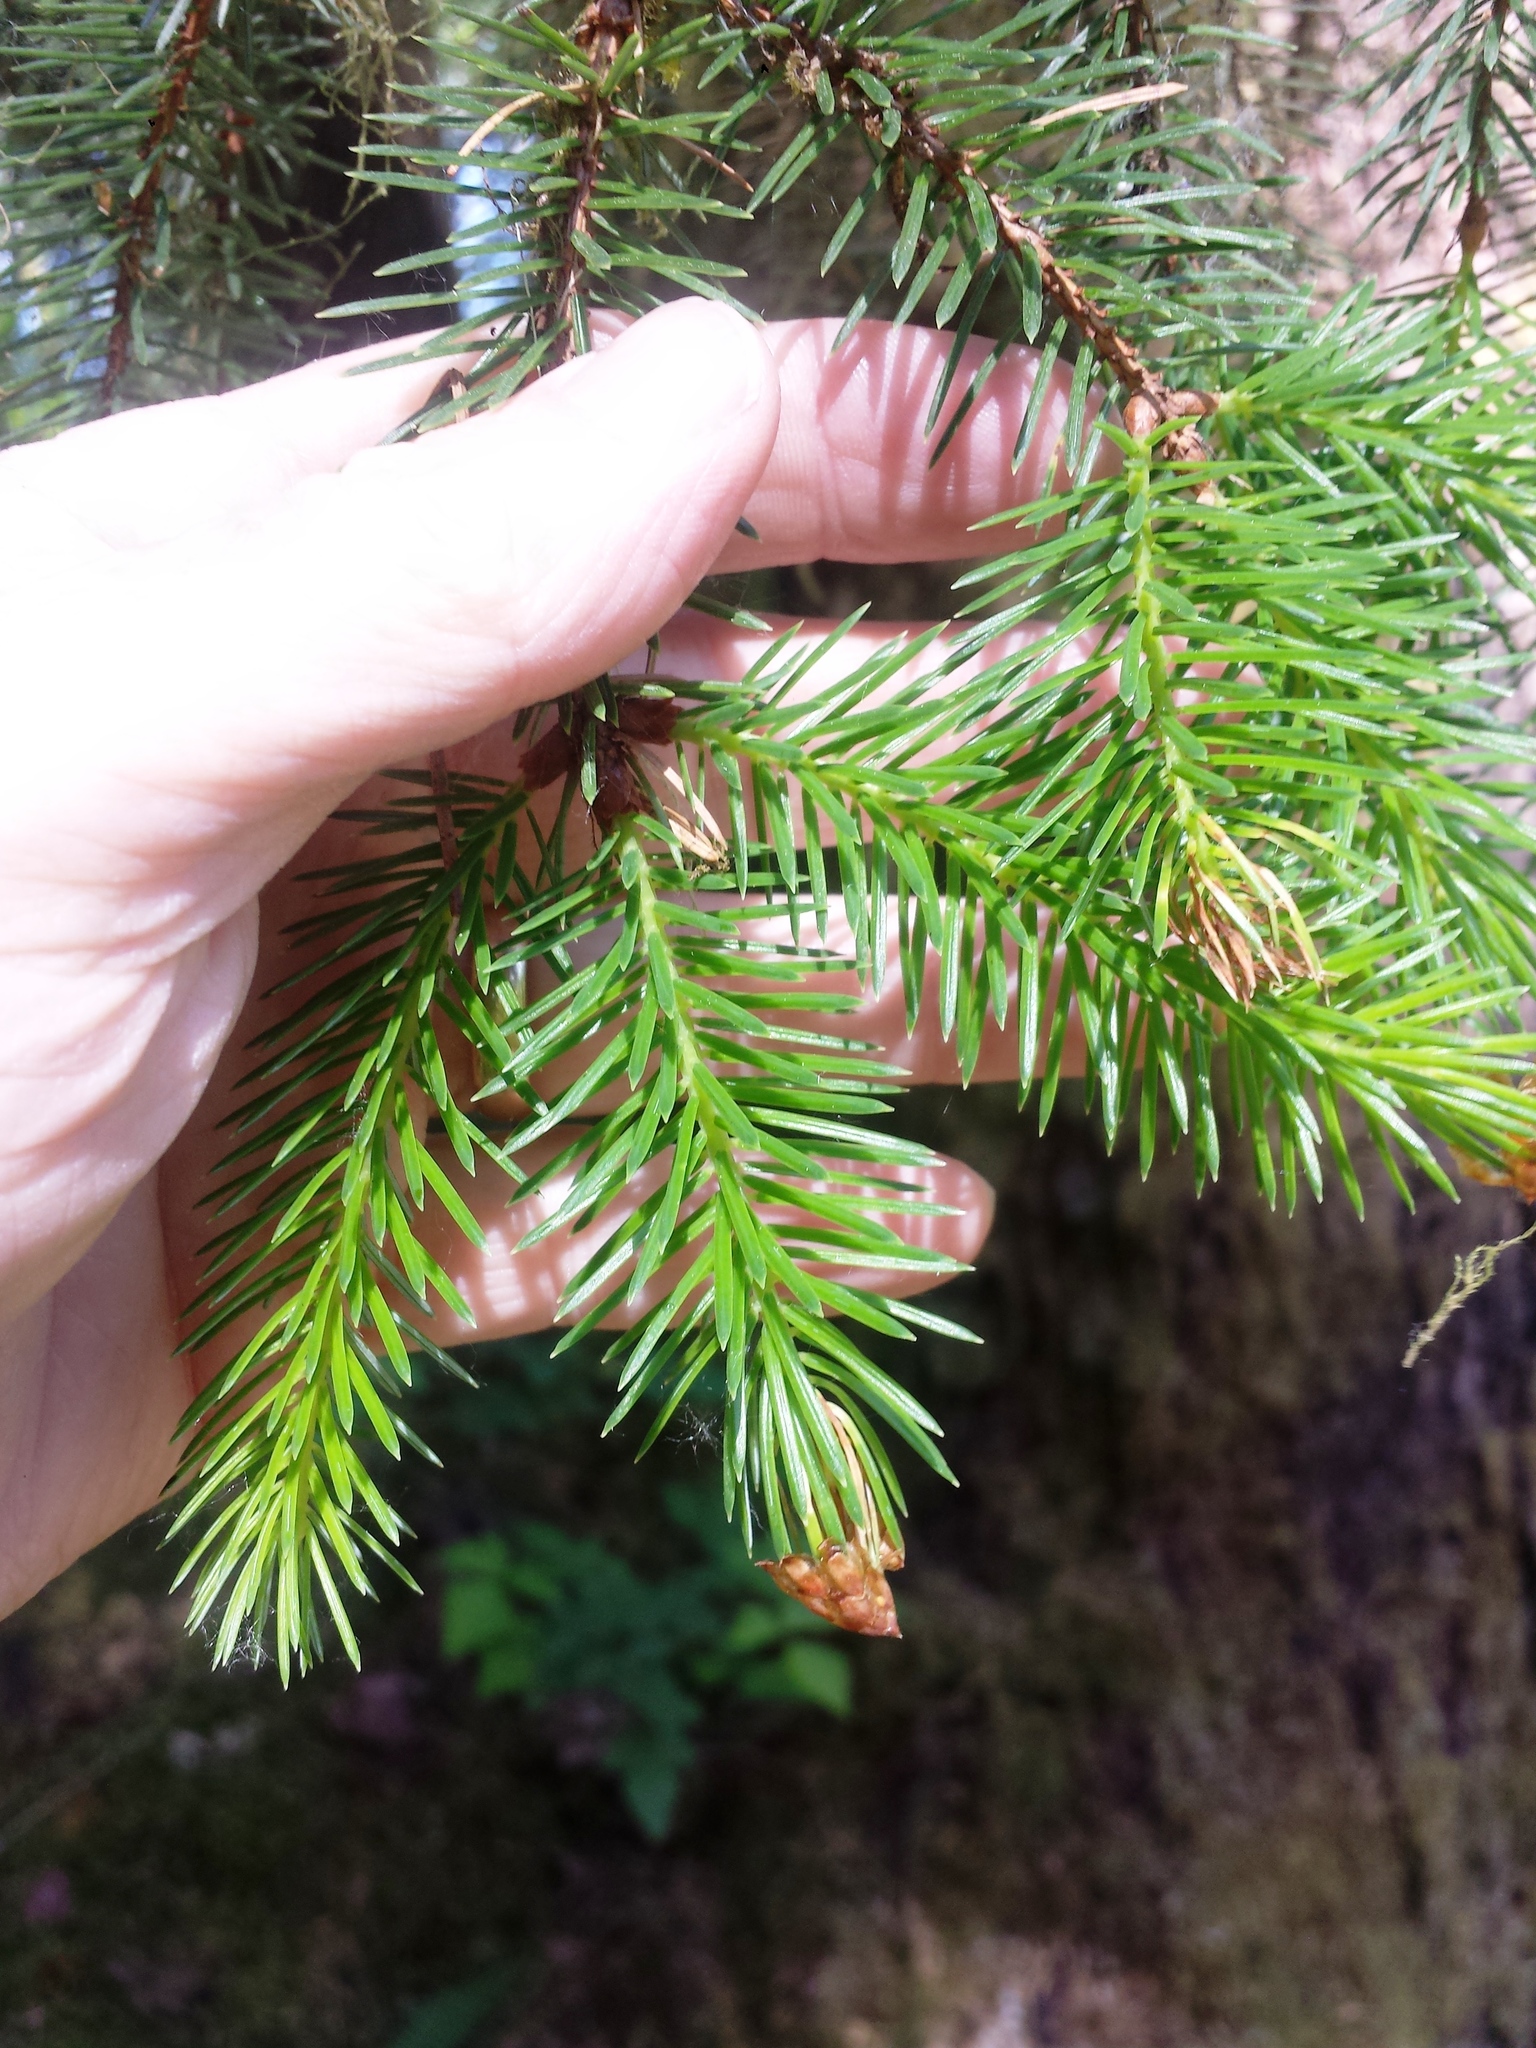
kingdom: Plantae
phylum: Tracheophyta
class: Pinopsida
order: Pinales
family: Pinaceae
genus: Picea
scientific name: Picea sitchensis
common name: Sitka spruce
